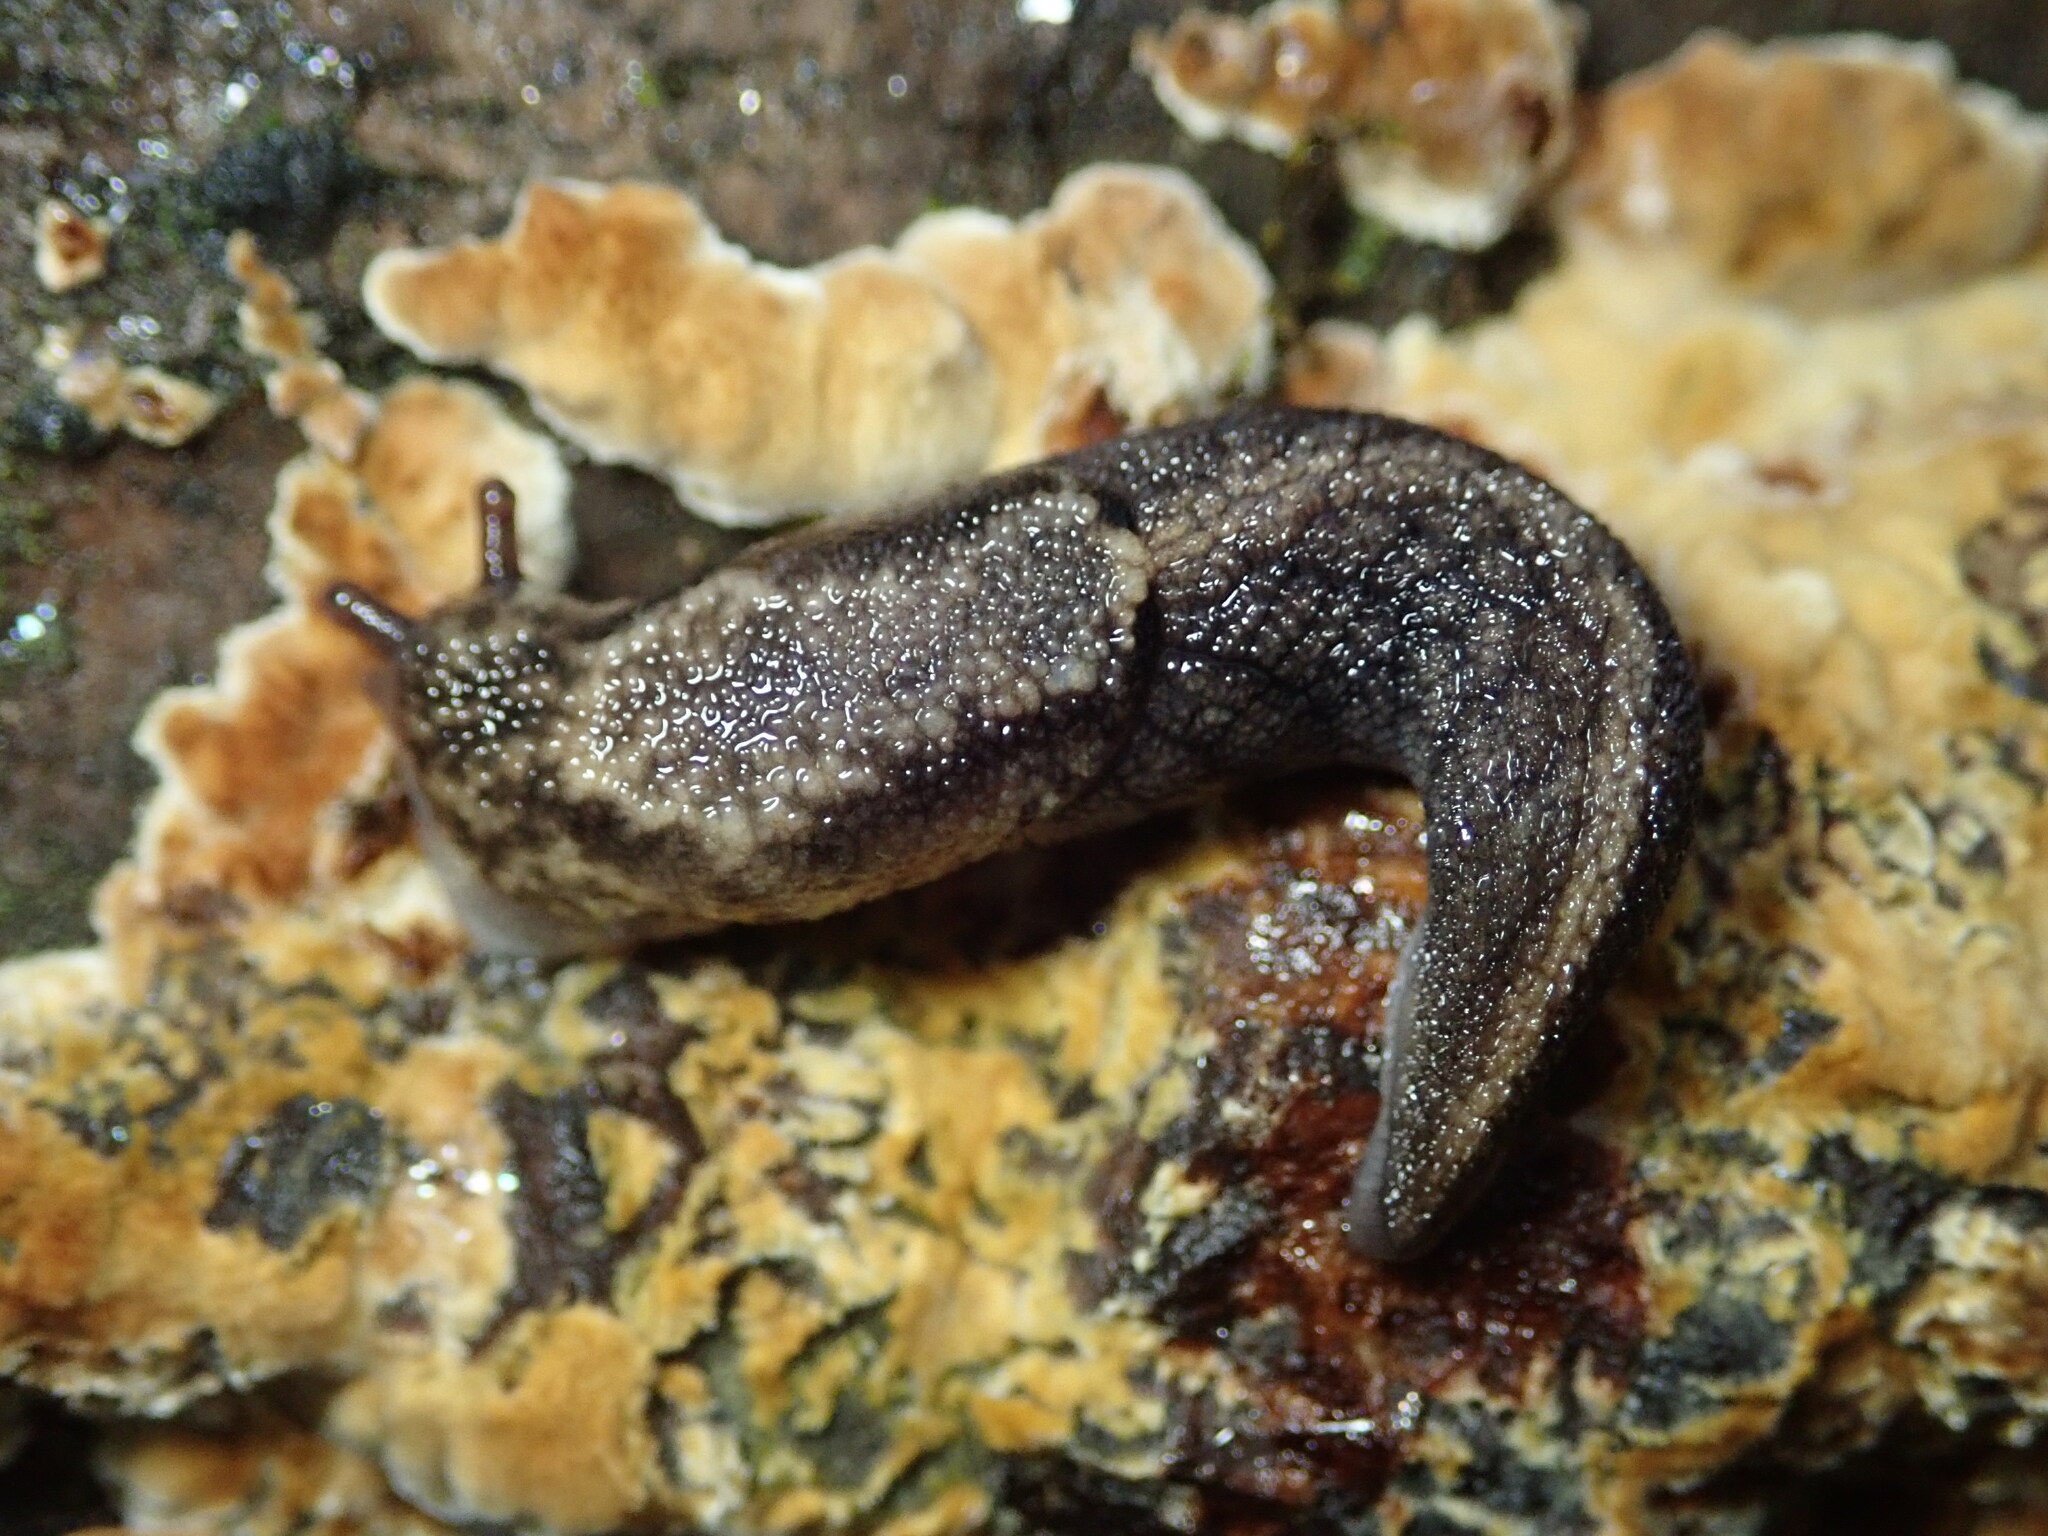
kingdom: Animalia
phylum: Mollusca
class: Gastropoda
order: Stylommatophora
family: Ariolimacidae
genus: Prophysaon
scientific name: Prophysaon andersonii
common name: Reticulate taildropper
